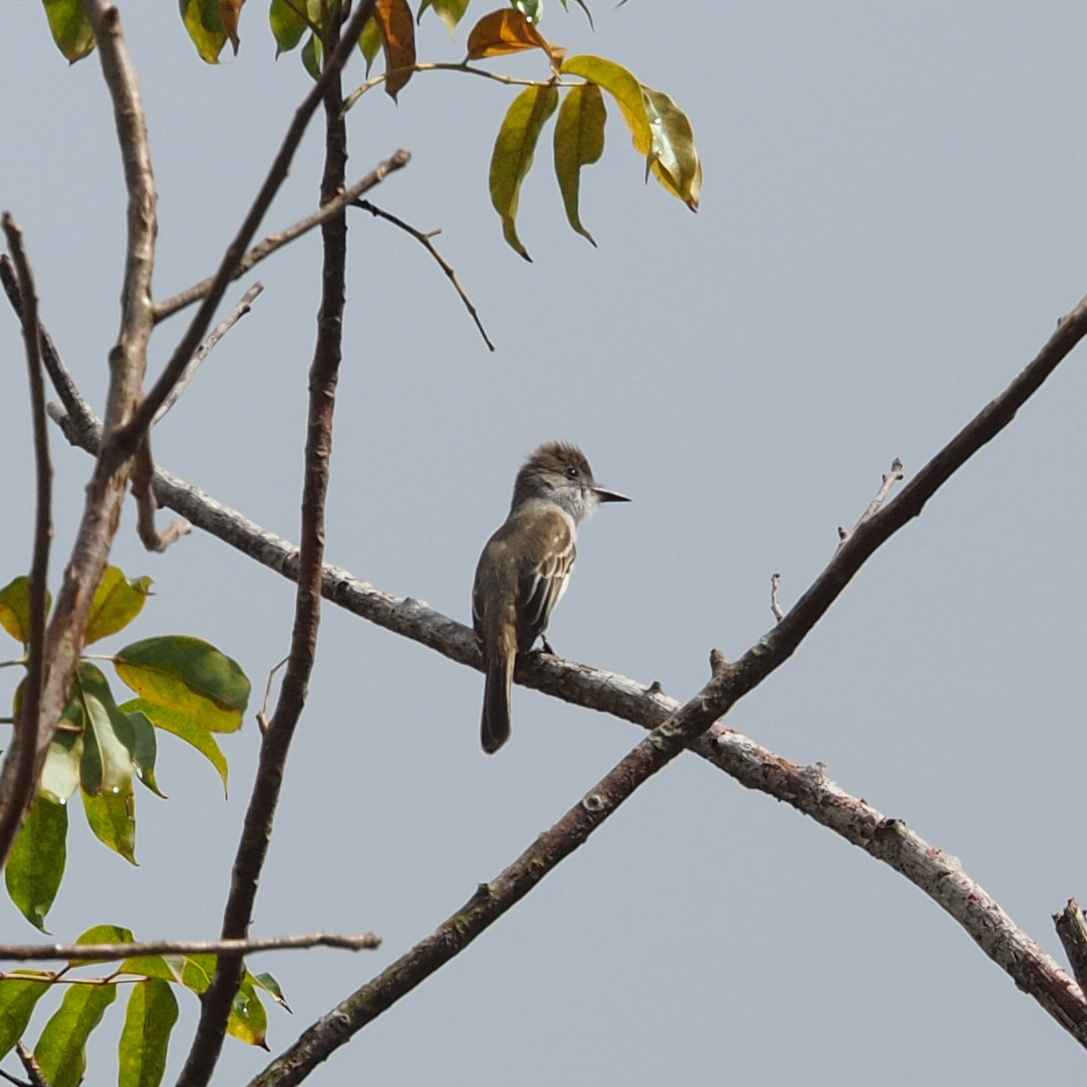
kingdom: Animalia
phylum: Chordata
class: Aves
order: Passeriformes
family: Tyrannidae
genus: Myiarchus
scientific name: Myiarchus sagrae
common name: La sagra's flycatcher
